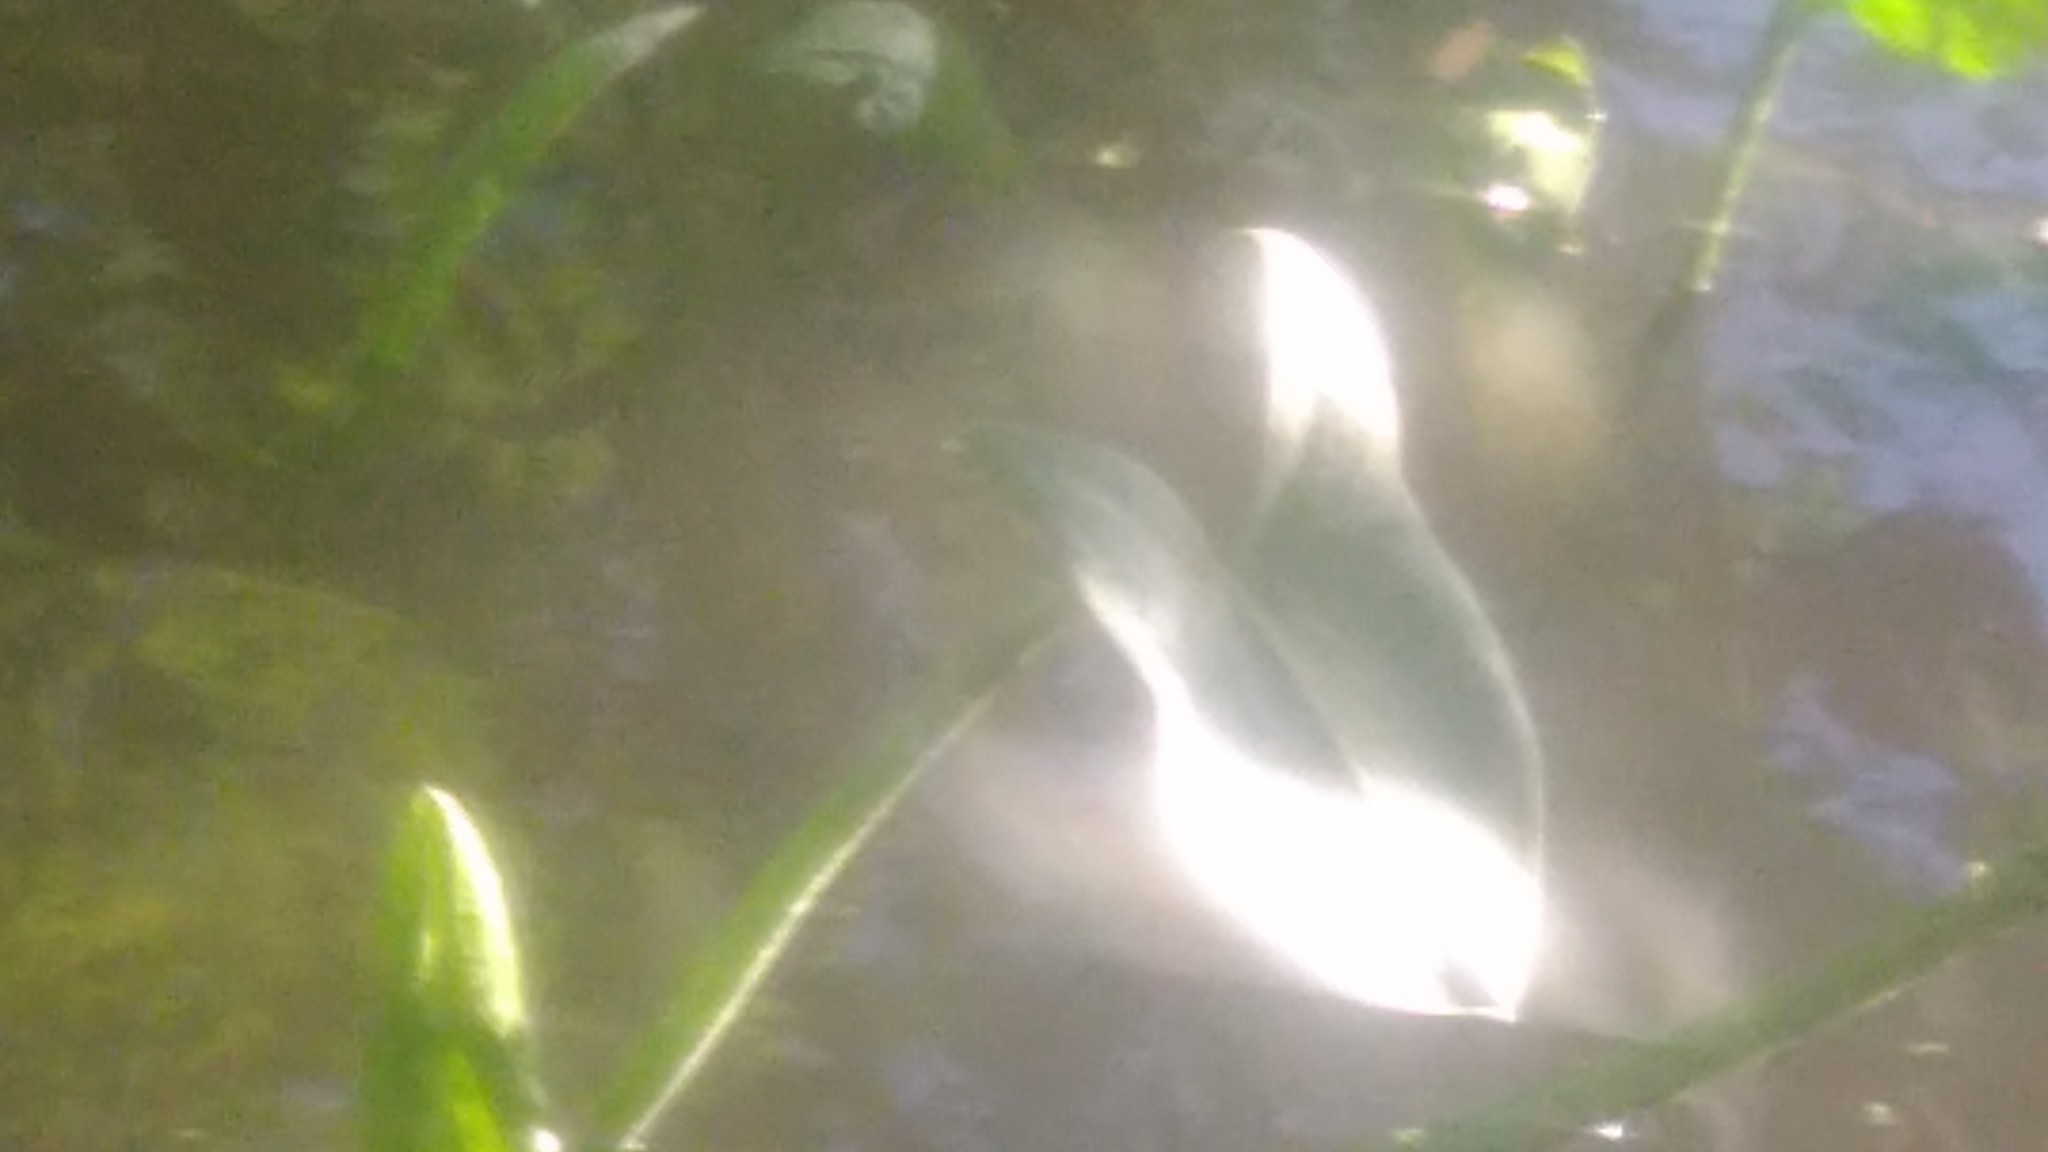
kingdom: Plantae
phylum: Tracheophyta
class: Liliopsida
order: Alismatales
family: Alismataceae
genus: Sagittaria
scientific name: Sagittaria montevidensis
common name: Giant arrowhead
